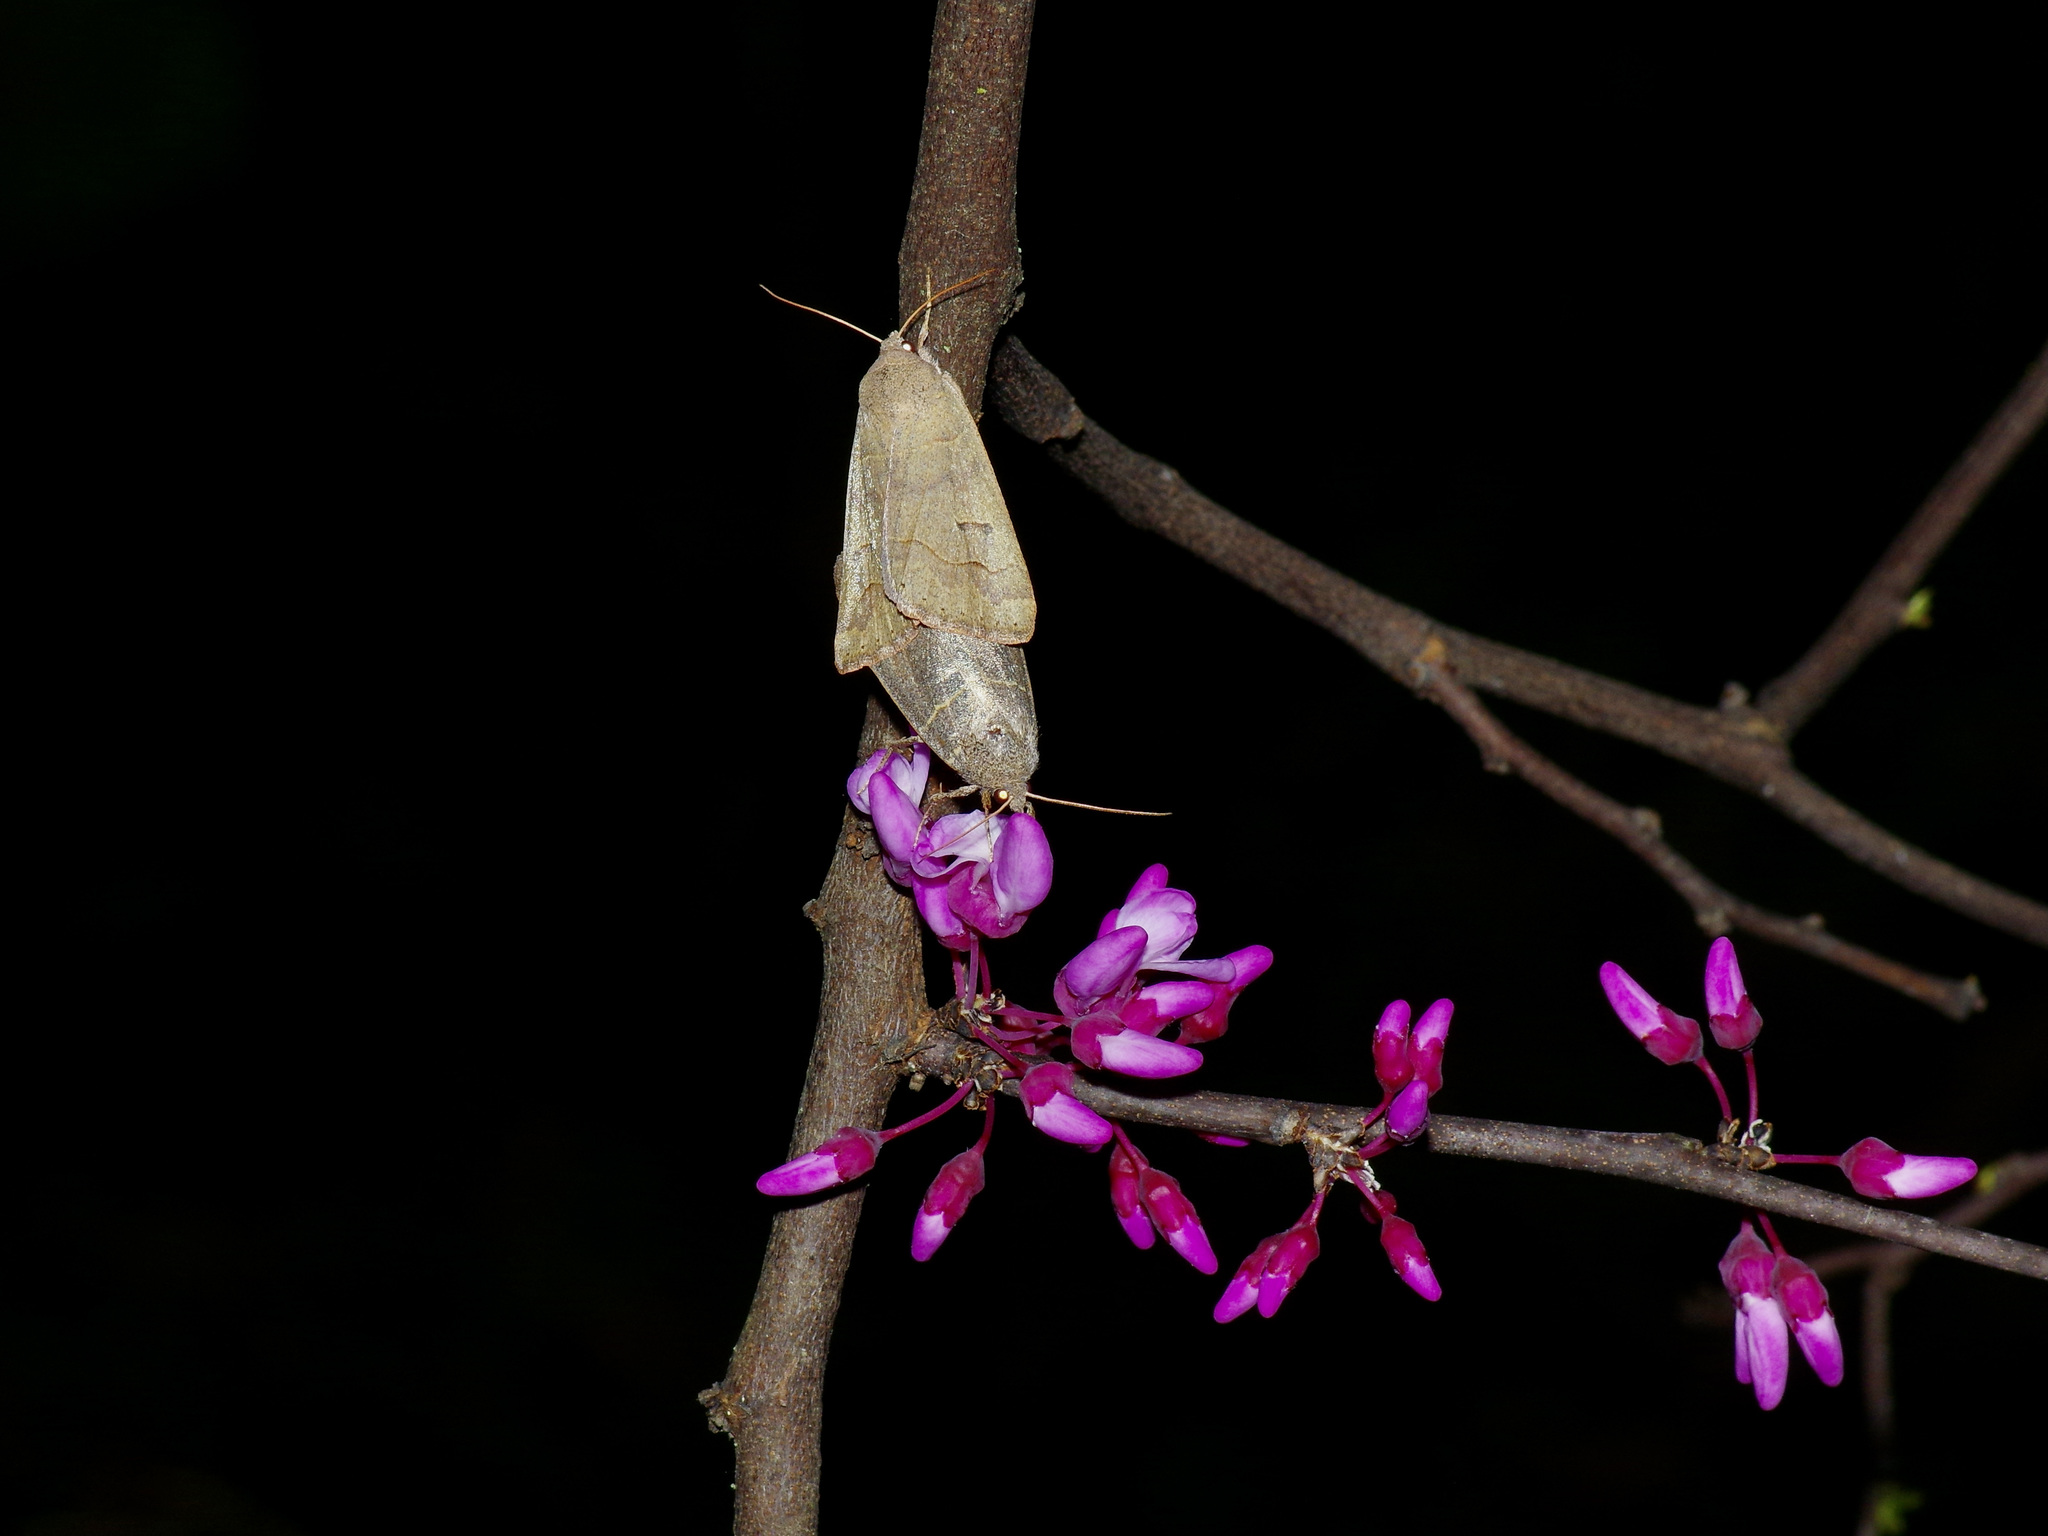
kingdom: Animalia
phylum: Arthropoda
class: Insecta
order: Lepidoptera
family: Erebidae
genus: Phoberia
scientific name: Phoberia atomaris
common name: Common oak moth
